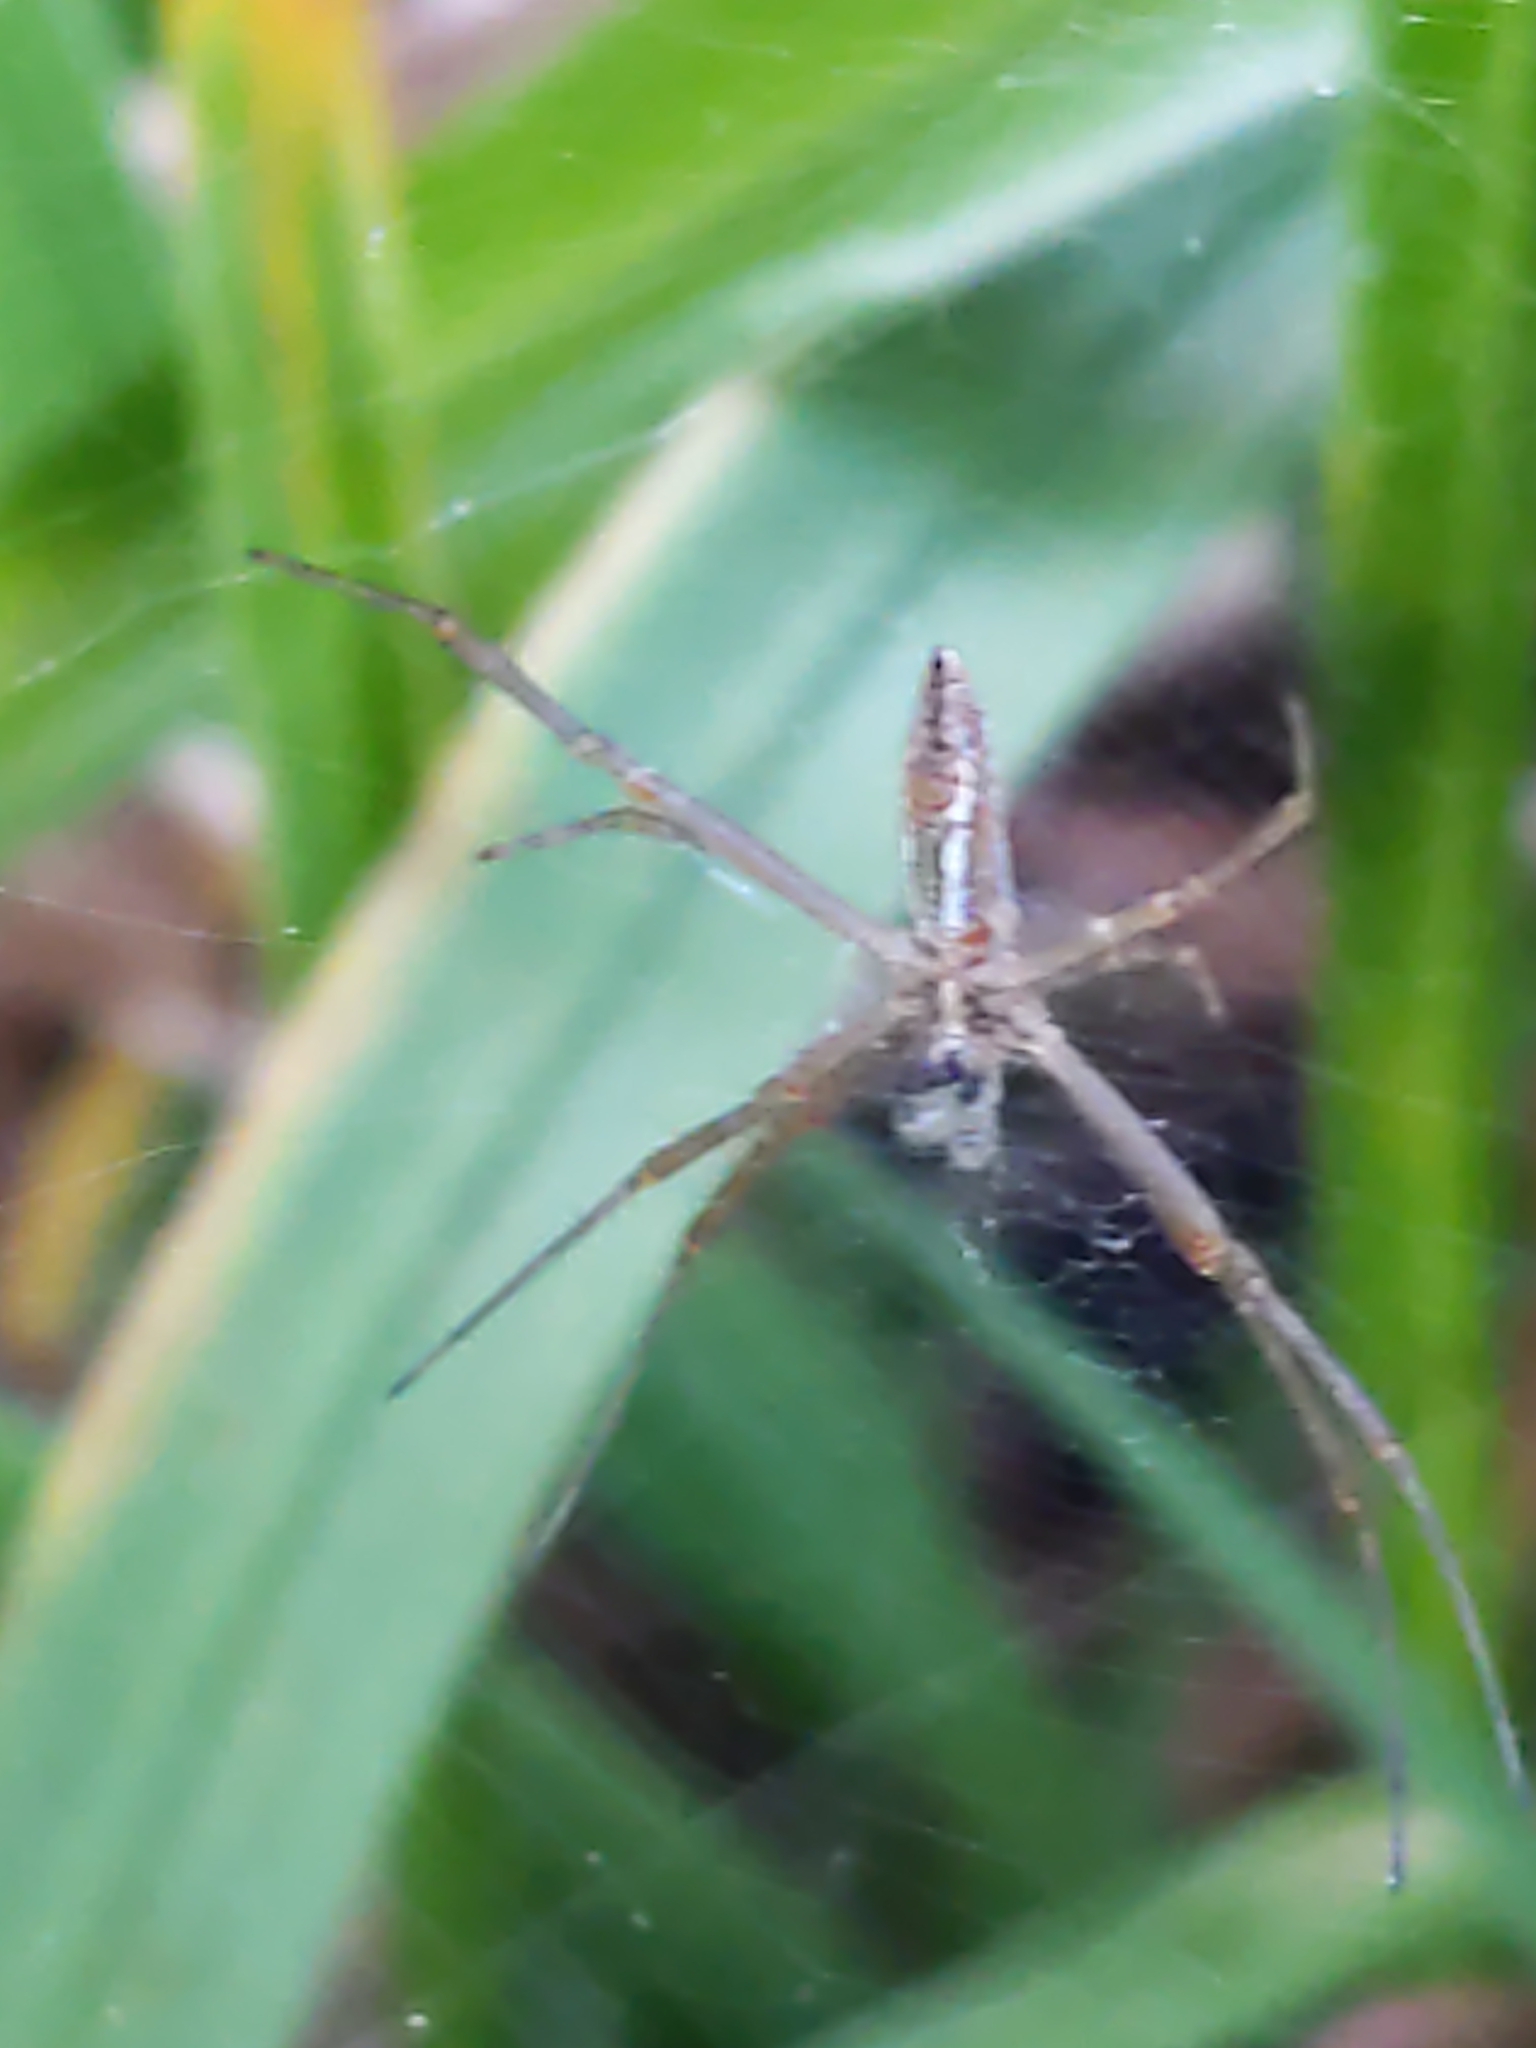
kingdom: Animalia
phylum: Arthropoda
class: Arachnida
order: Araneae
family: Araneidae
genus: Argiope
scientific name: Argiope trifasciata
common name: Banded garden spider
